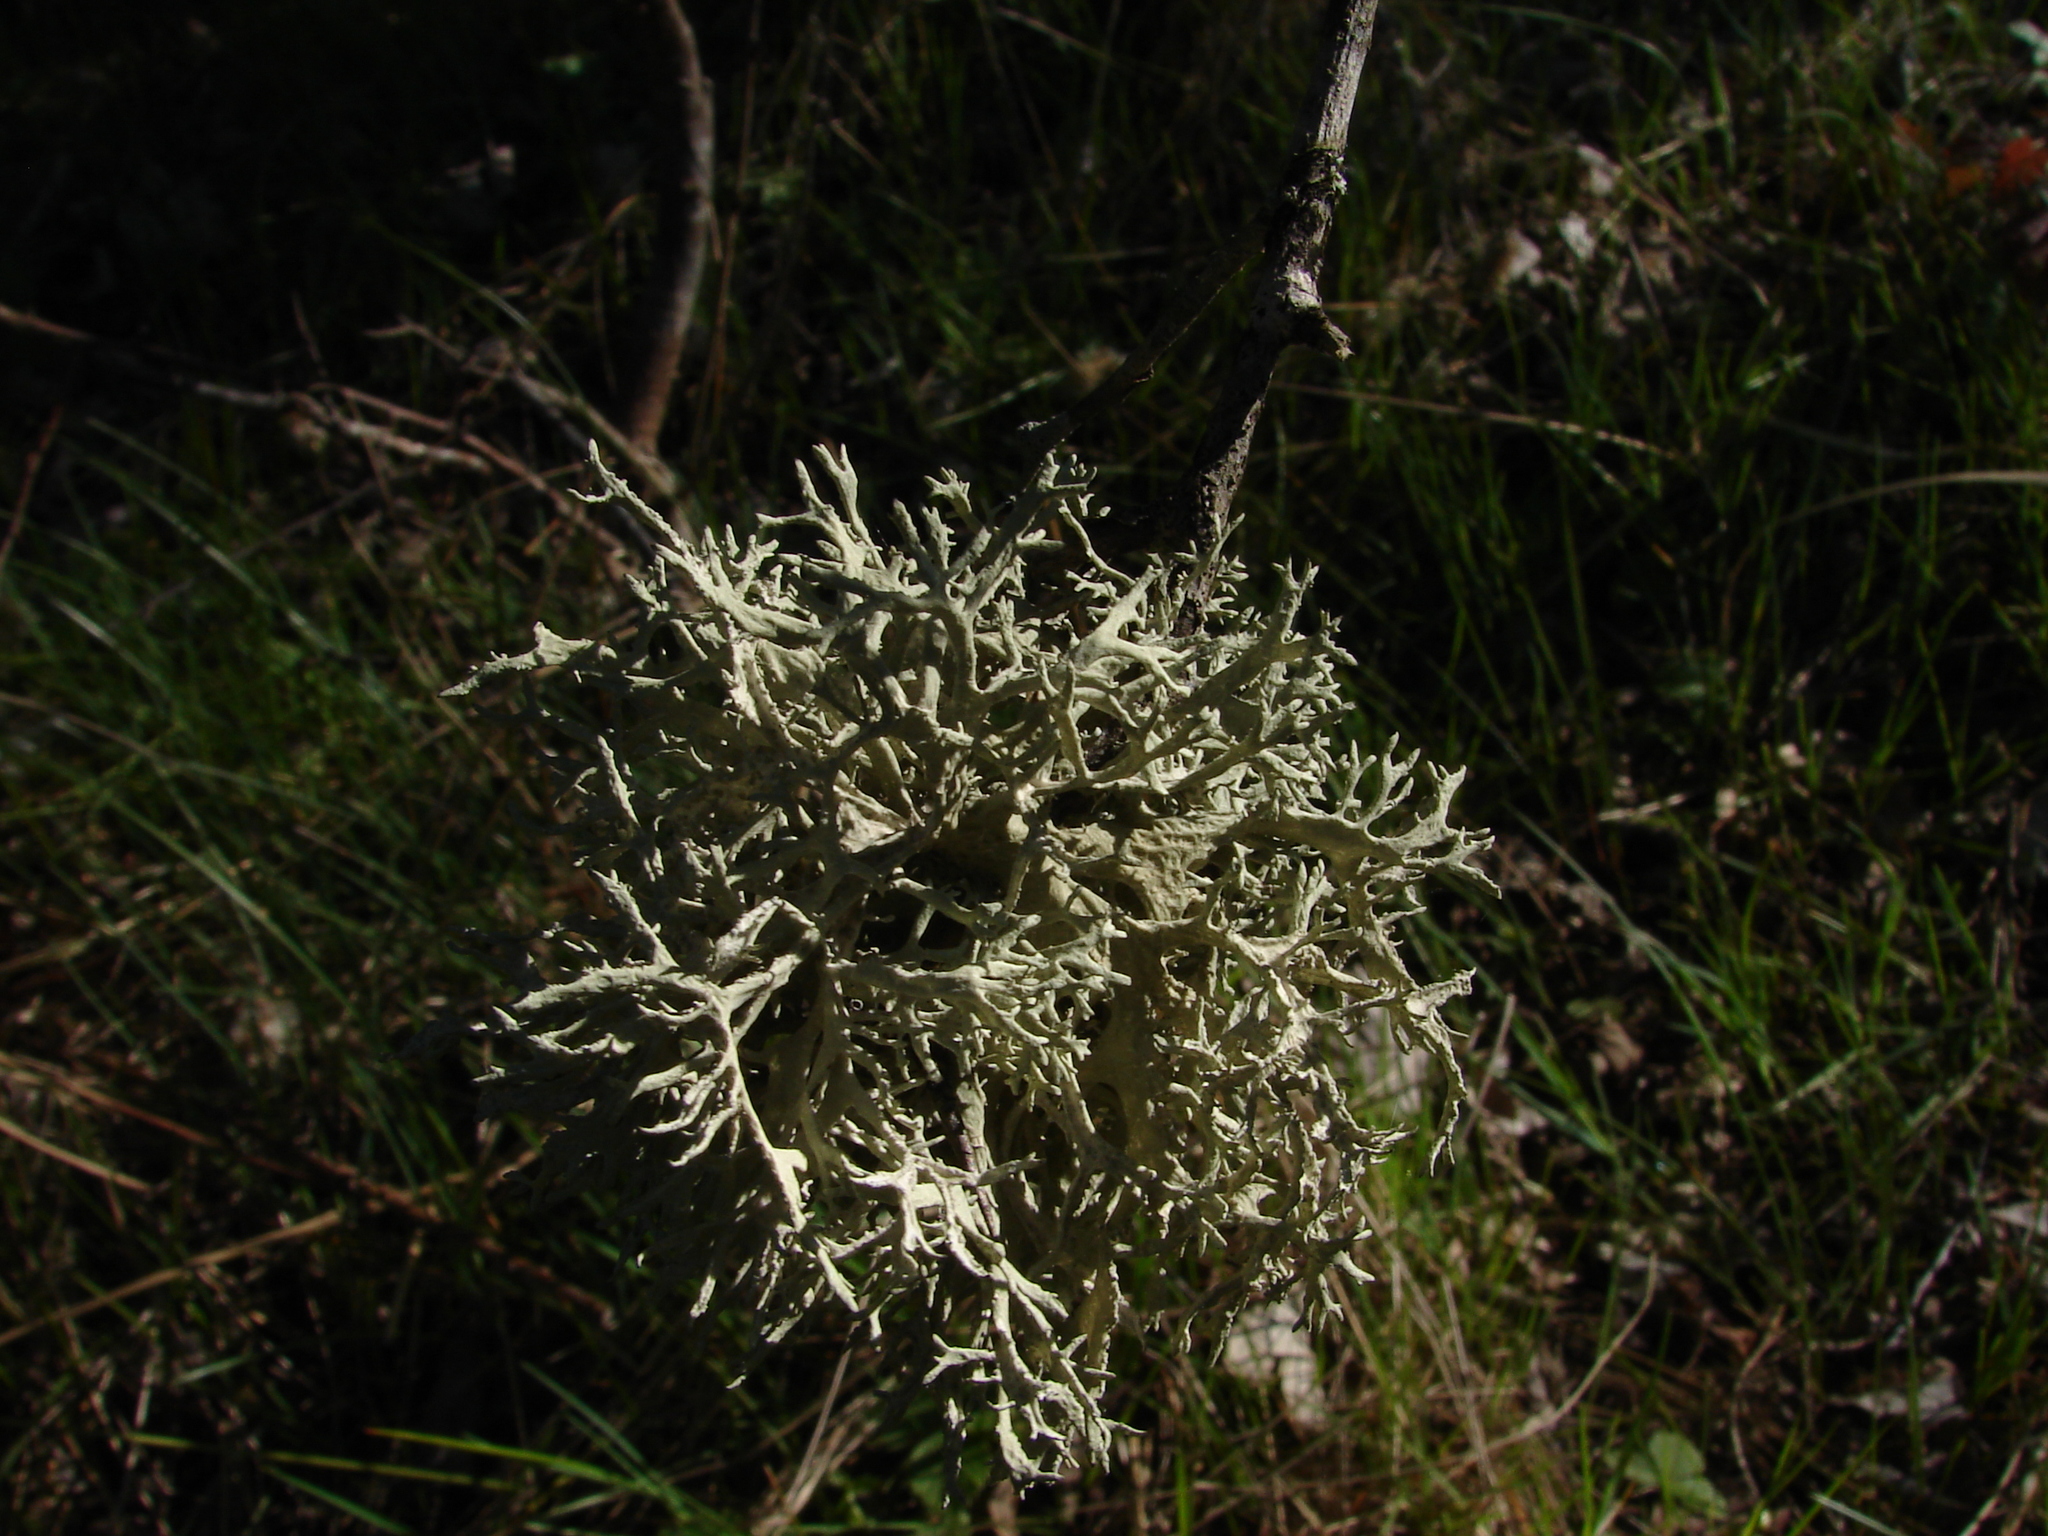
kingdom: Fungi
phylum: Ascomycota
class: Lecanoromycetes
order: Lecanorales
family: Parmeliaceae
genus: Evernia
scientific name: Evernia prunastri
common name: Oak moss
